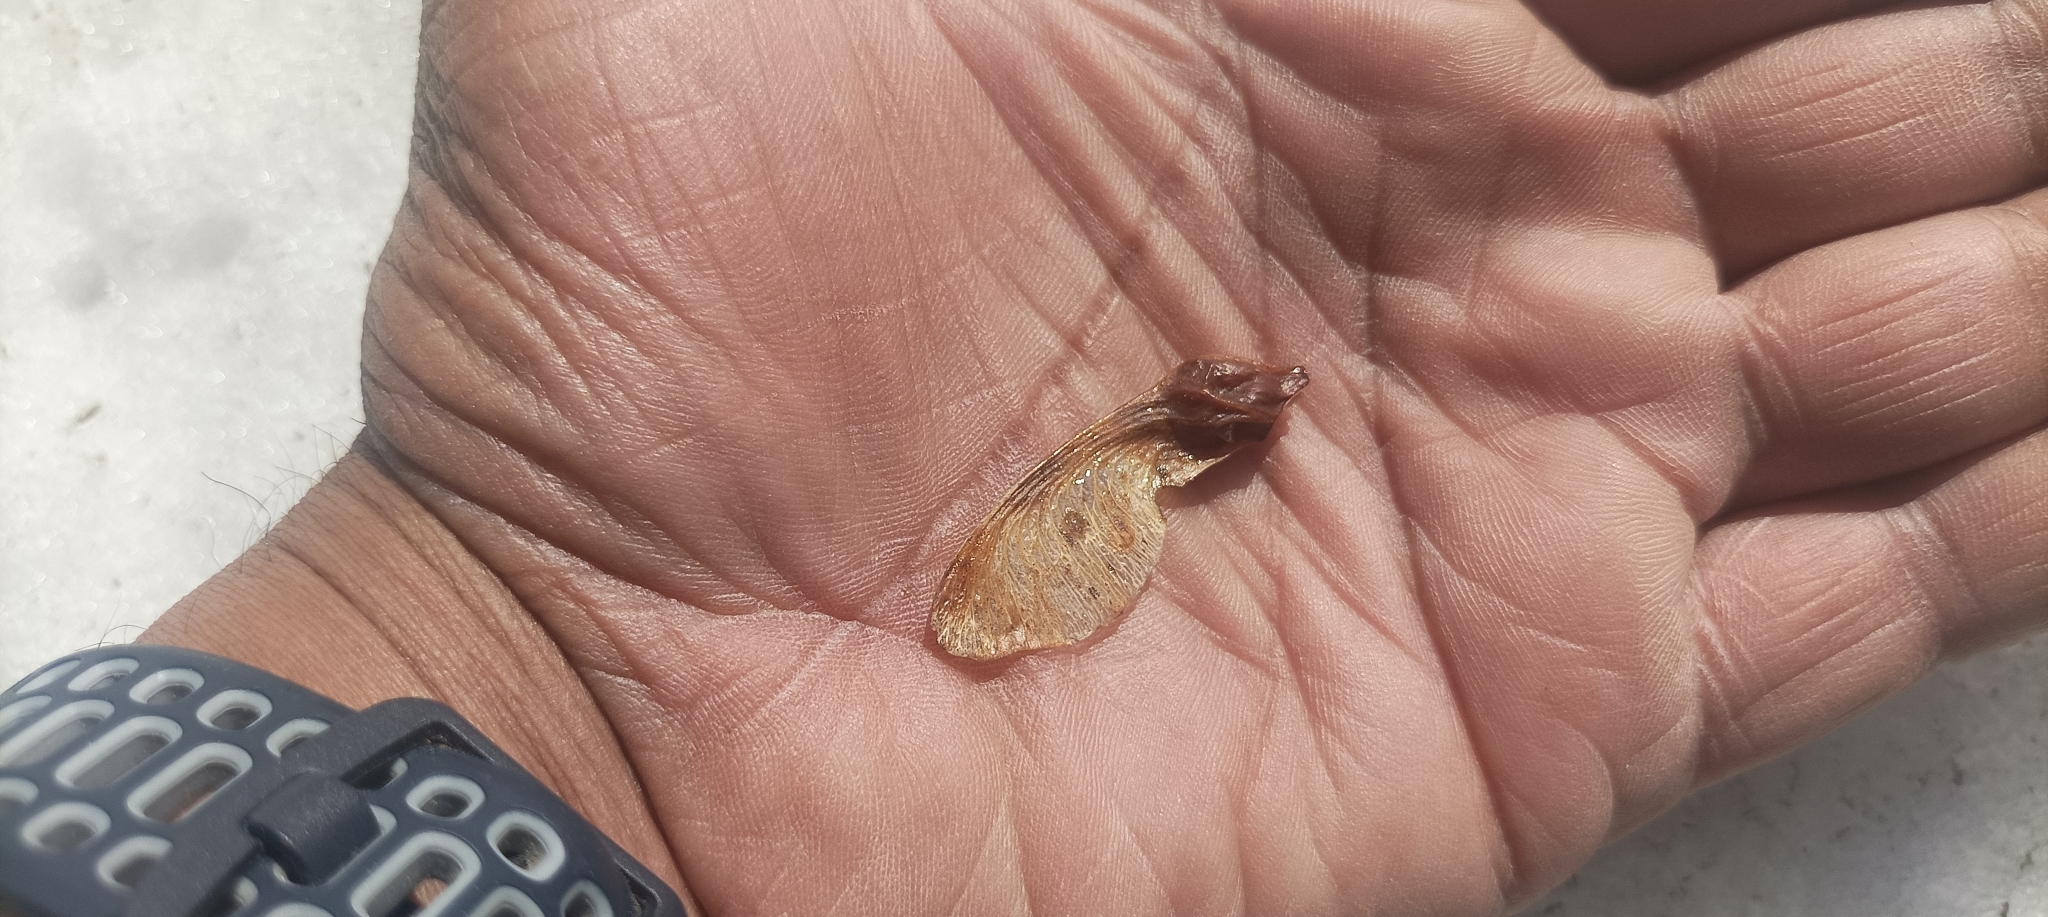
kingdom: Plantae
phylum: Tracheophyta
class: Magnoliopsida
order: Sapindales
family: Sapindaceae
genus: Acer
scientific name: Acer acuminatum
